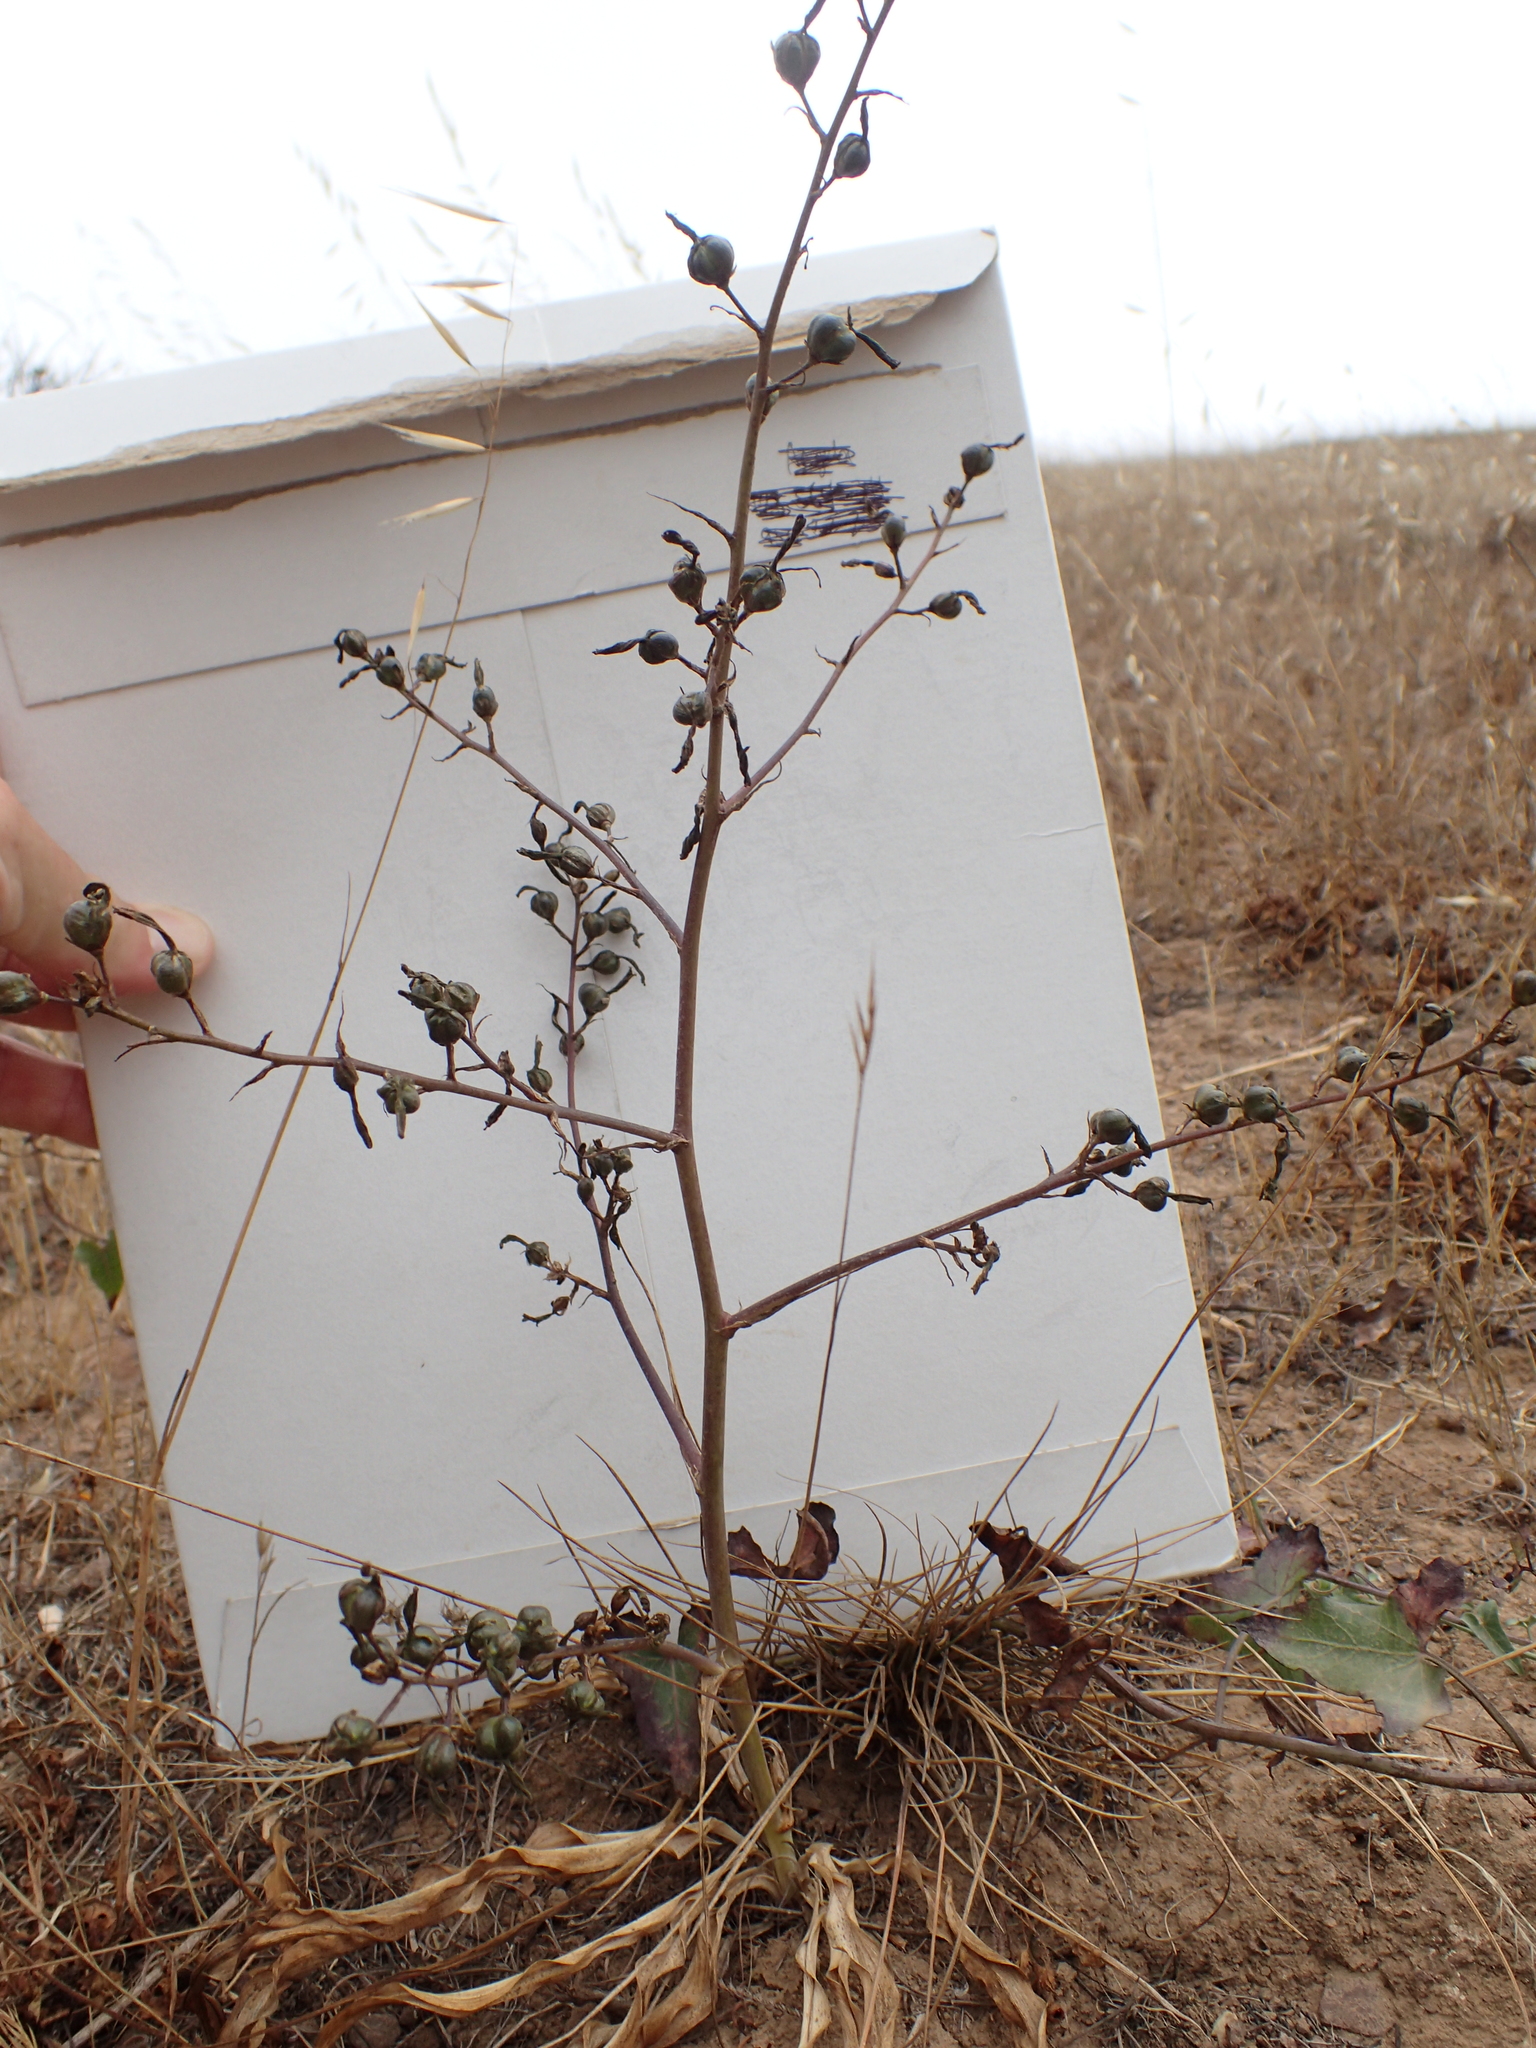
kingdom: Plantae
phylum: Tracheophyta
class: Liliopsida
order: Asparagales
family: Asparagaceae
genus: Chlorogalum
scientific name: Chlorogalum pomeridianum
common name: Amole
